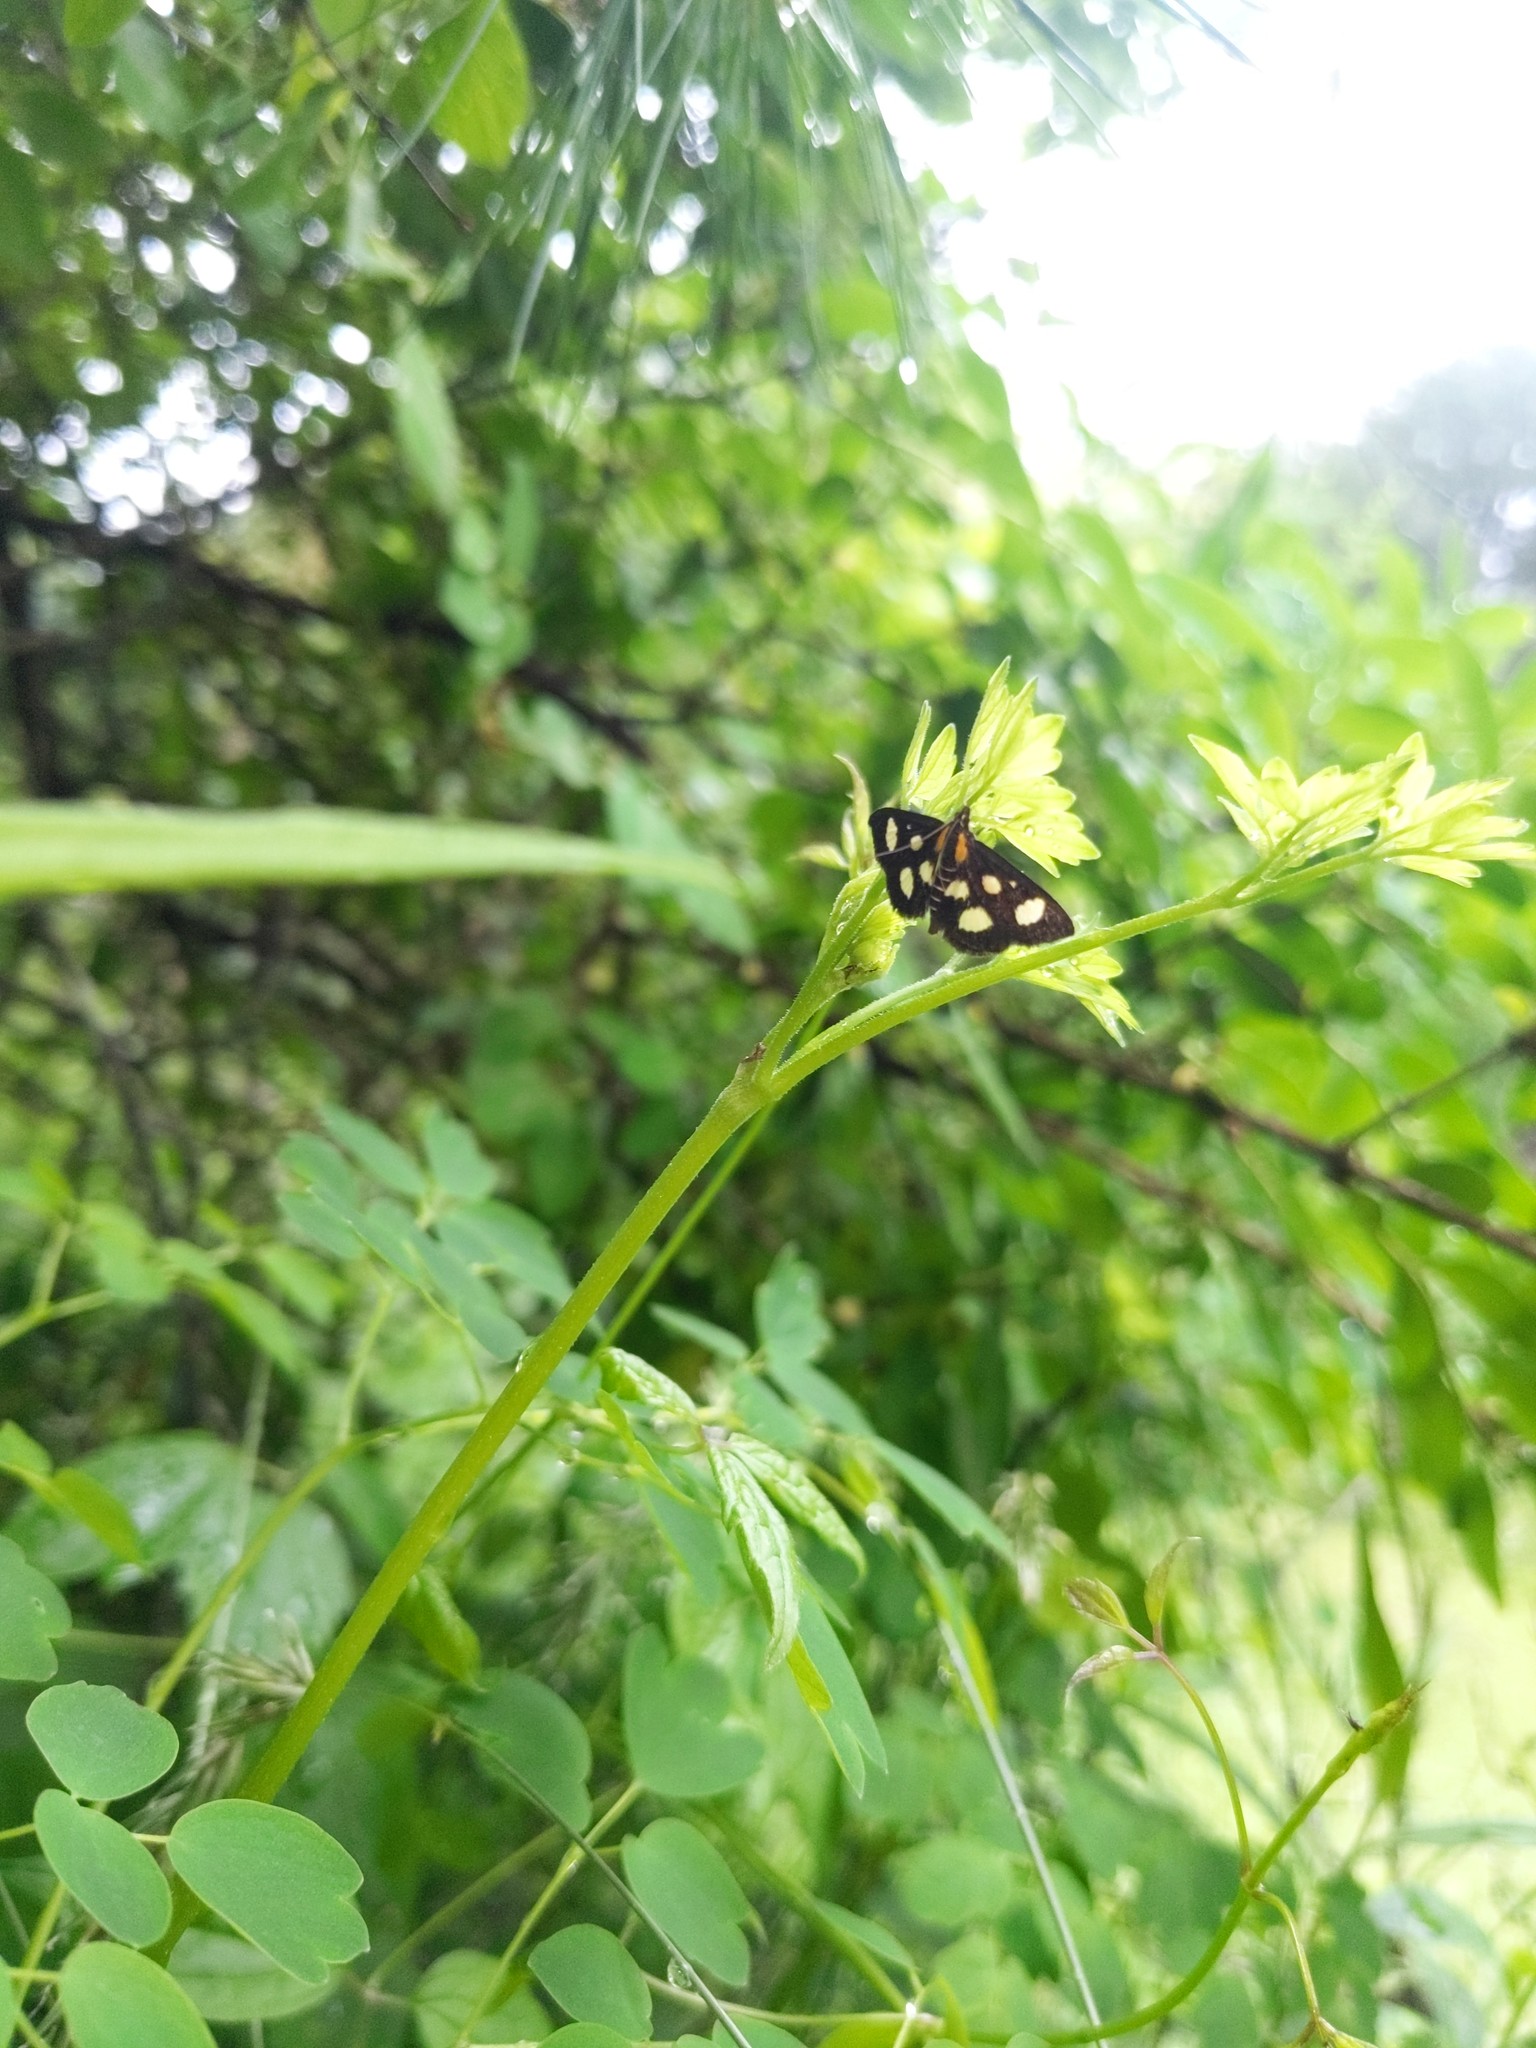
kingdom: Animalia
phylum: Arthropoda
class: Insecta
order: Lepidoptera
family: Crambidae
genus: Anania
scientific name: Anania funebris
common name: White-spotted sable moth
